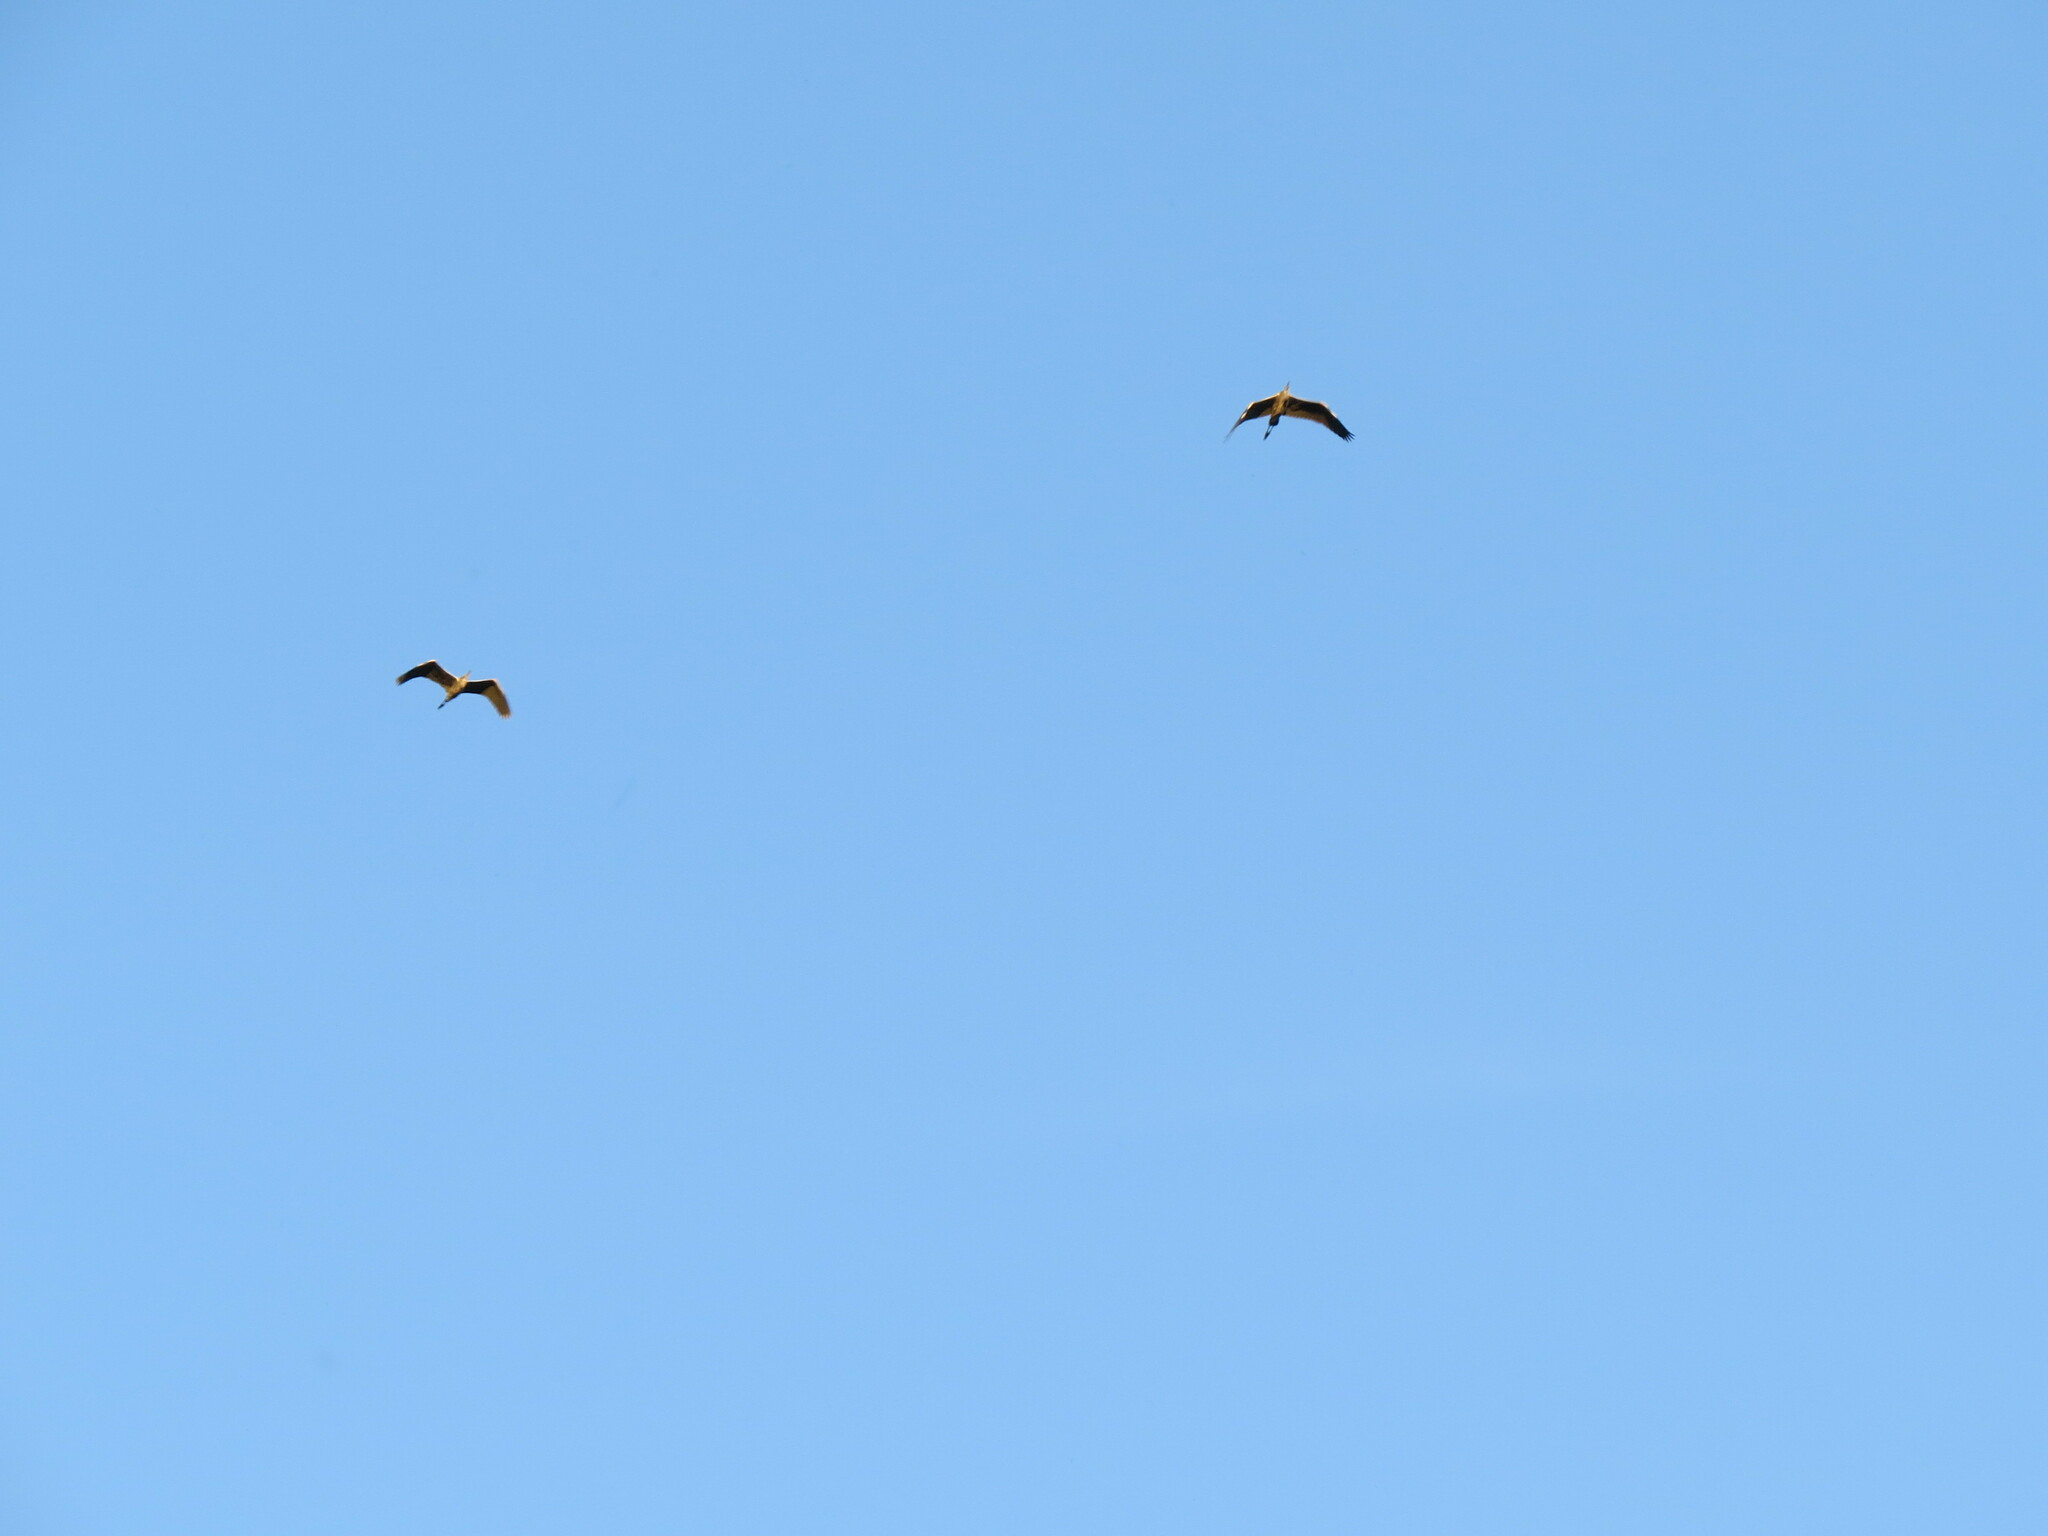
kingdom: Animalia
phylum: Chordata
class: Aves
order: Pelecaniformes
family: Ardeidae
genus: Ardea
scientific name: Ardea cinerea
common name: Grey heron
